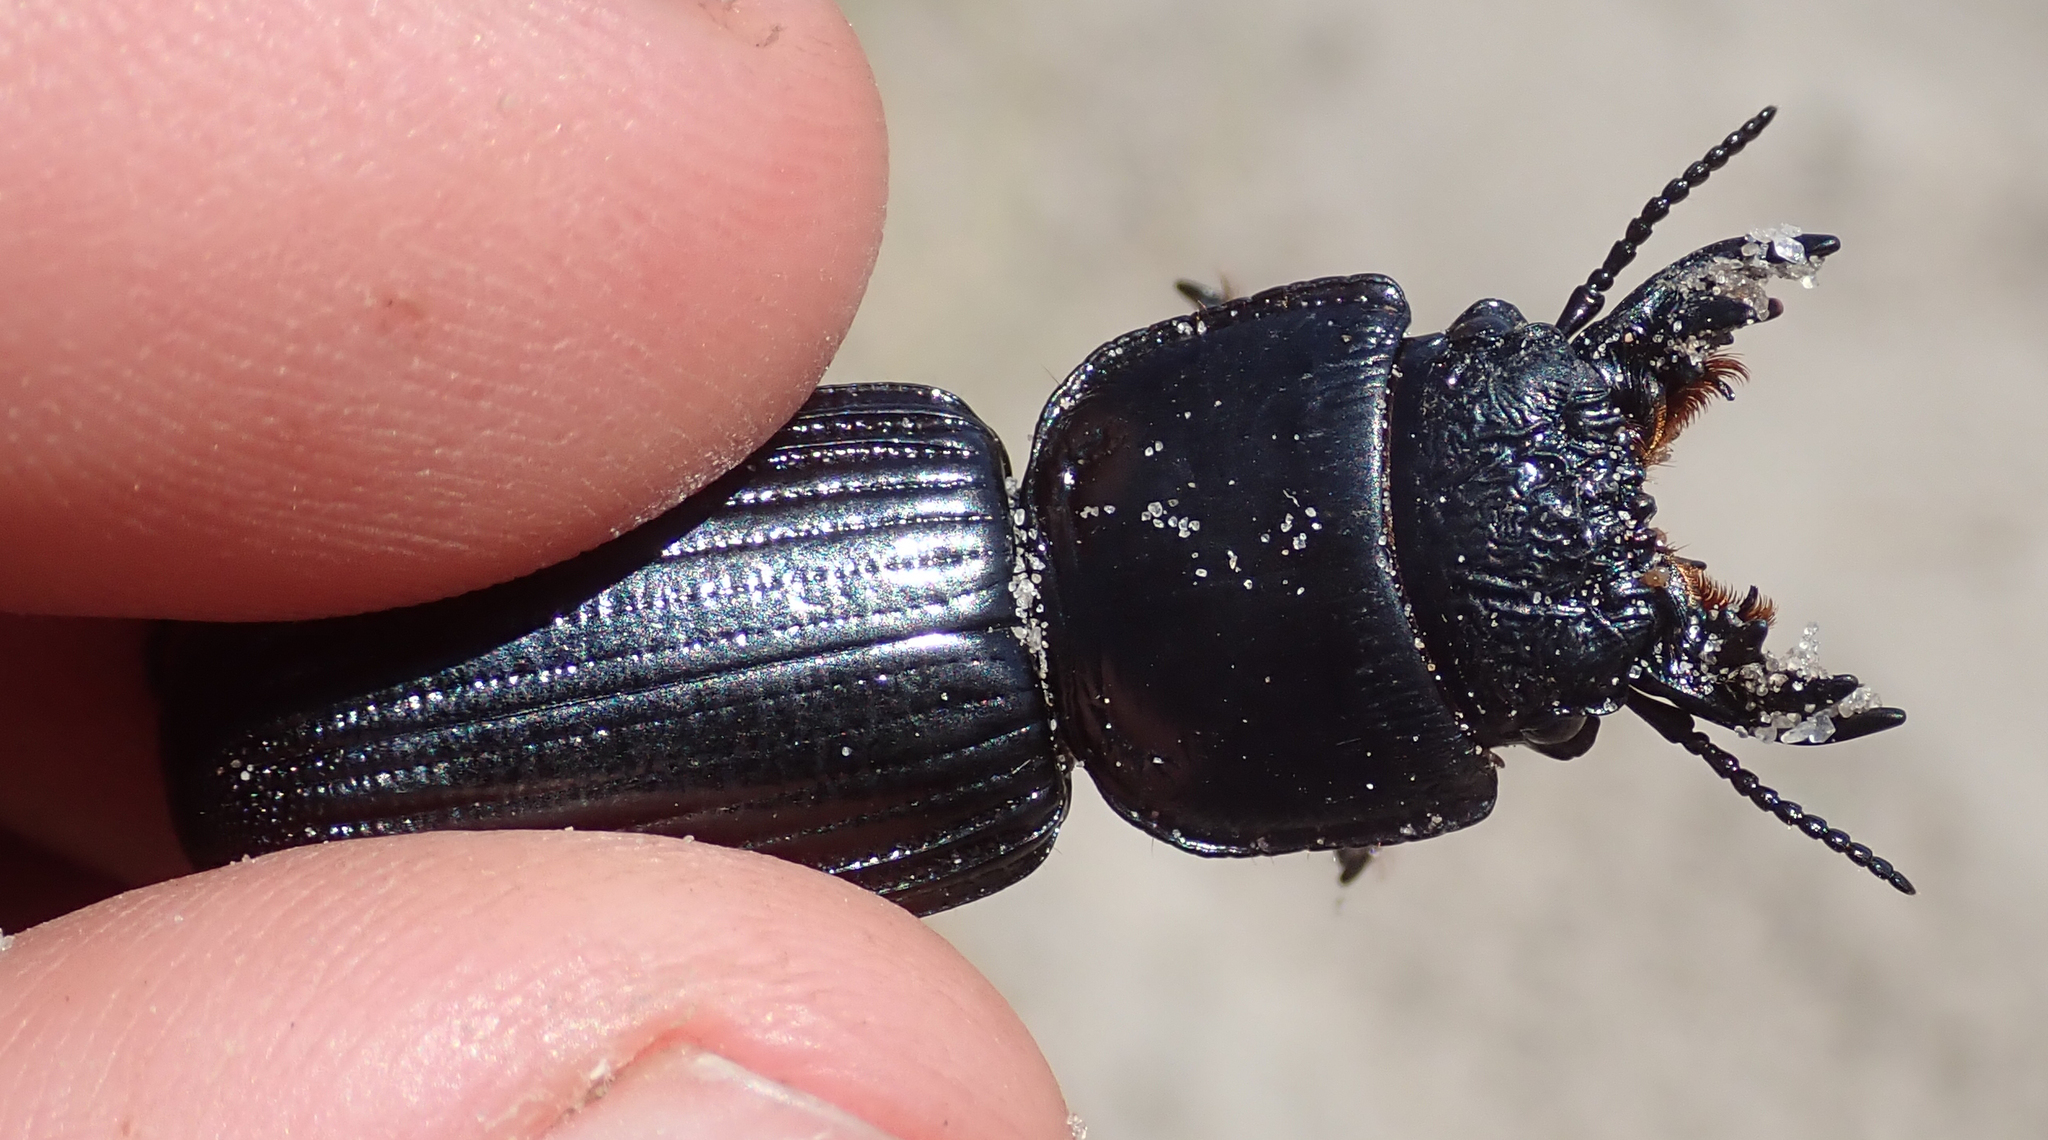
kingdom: Animalia
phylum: Arthropoda
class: Insecta
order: Coleoptera
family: Carabidae
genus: Passalidius
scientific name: Passalidius fortipes
